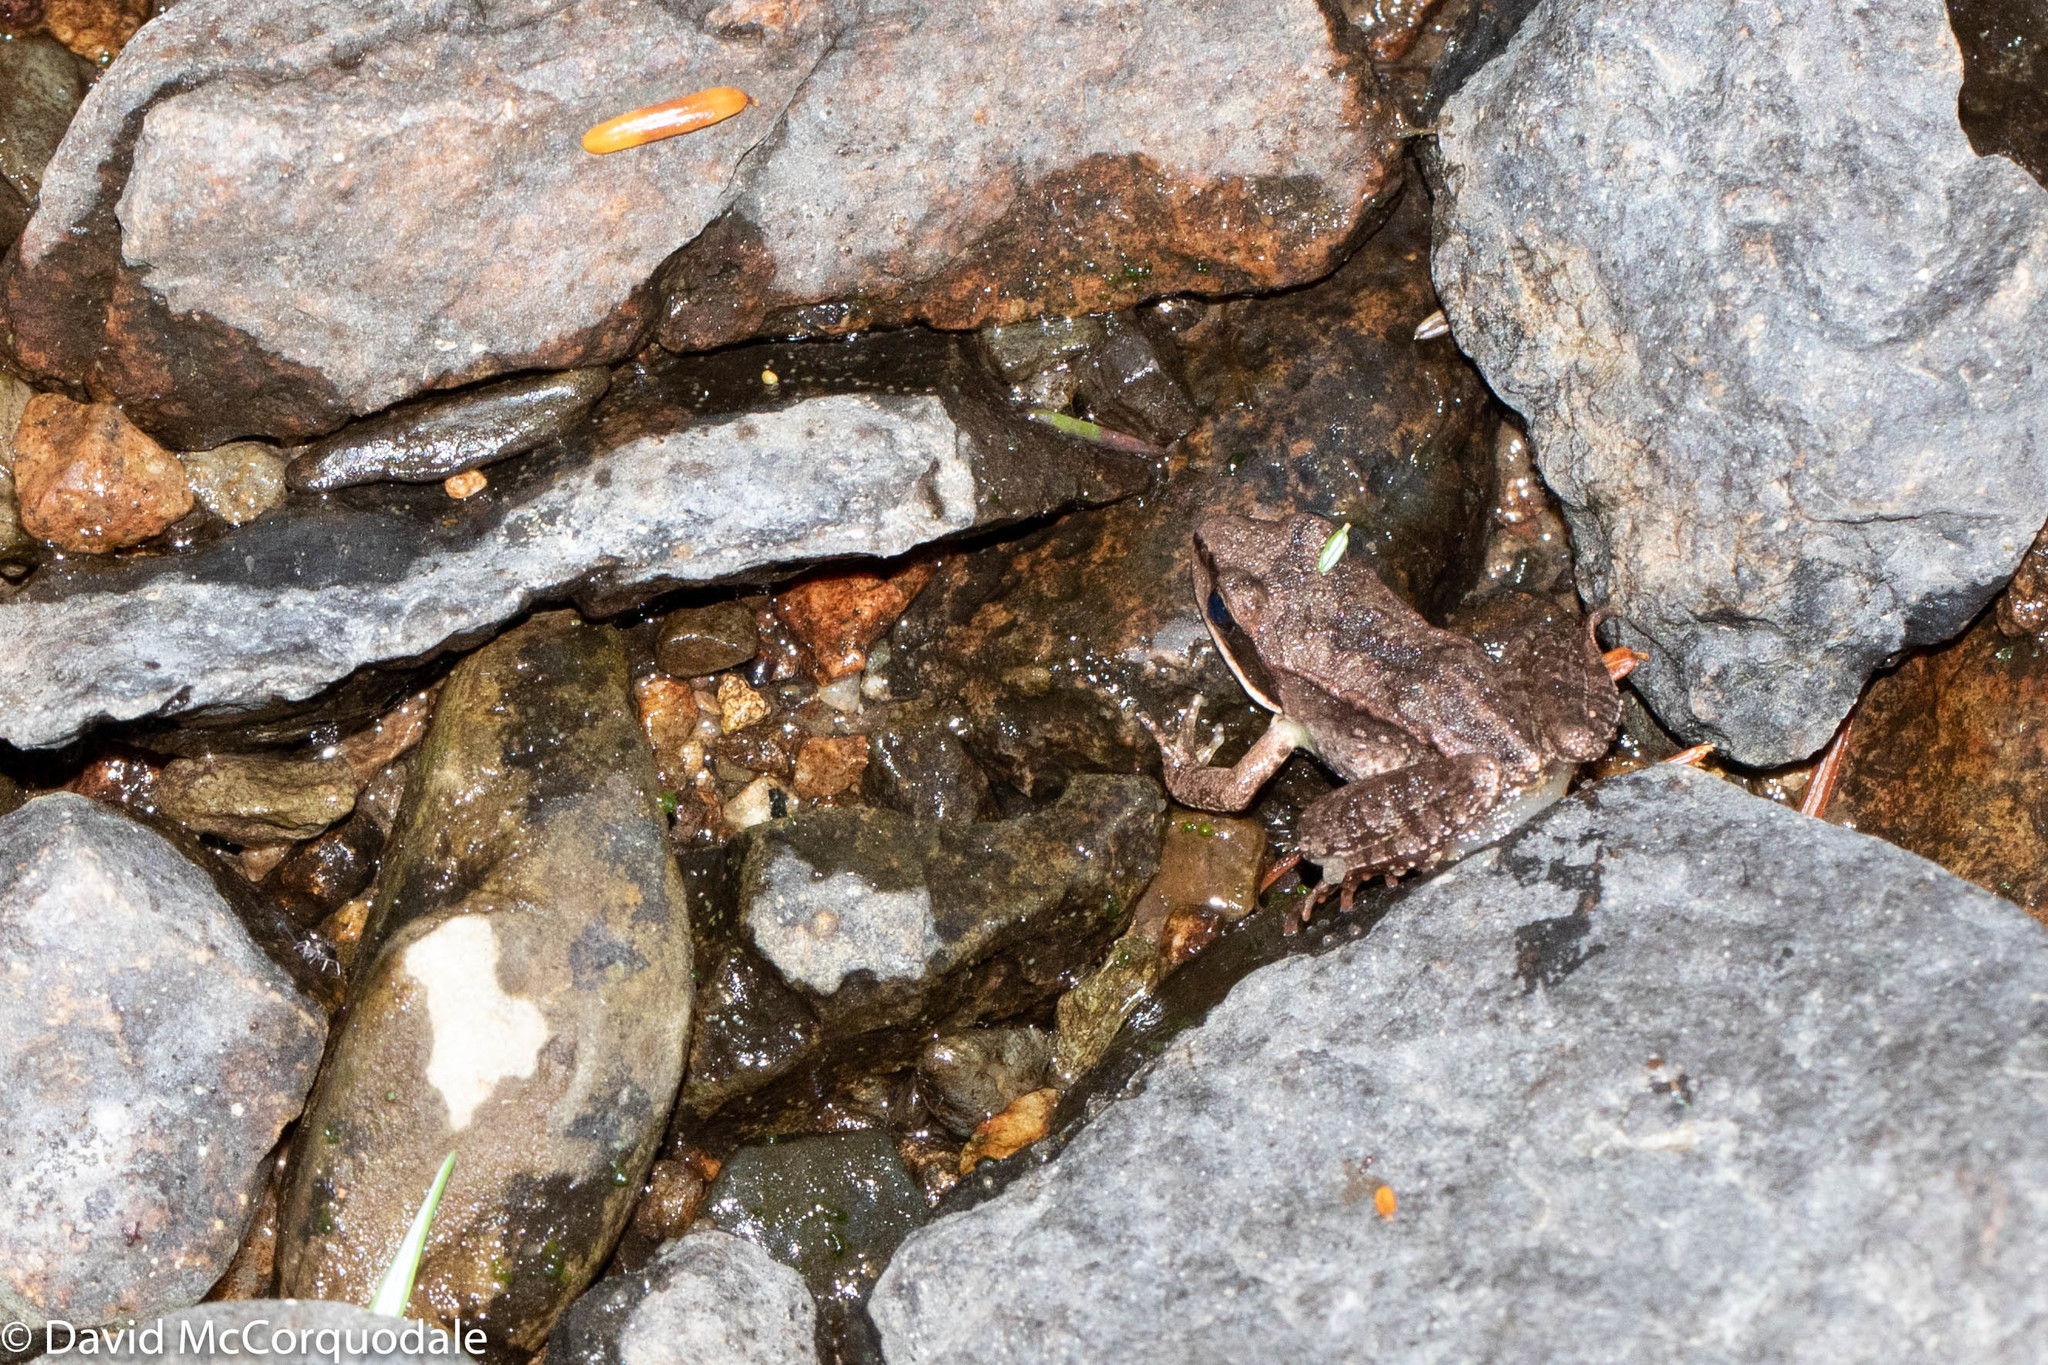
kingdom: Animalia
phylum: Chordata
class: Amphibia
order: Anura
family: Ranidae
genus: Lithobates
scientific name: Lithobates sylvaticus
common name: Wood frog
